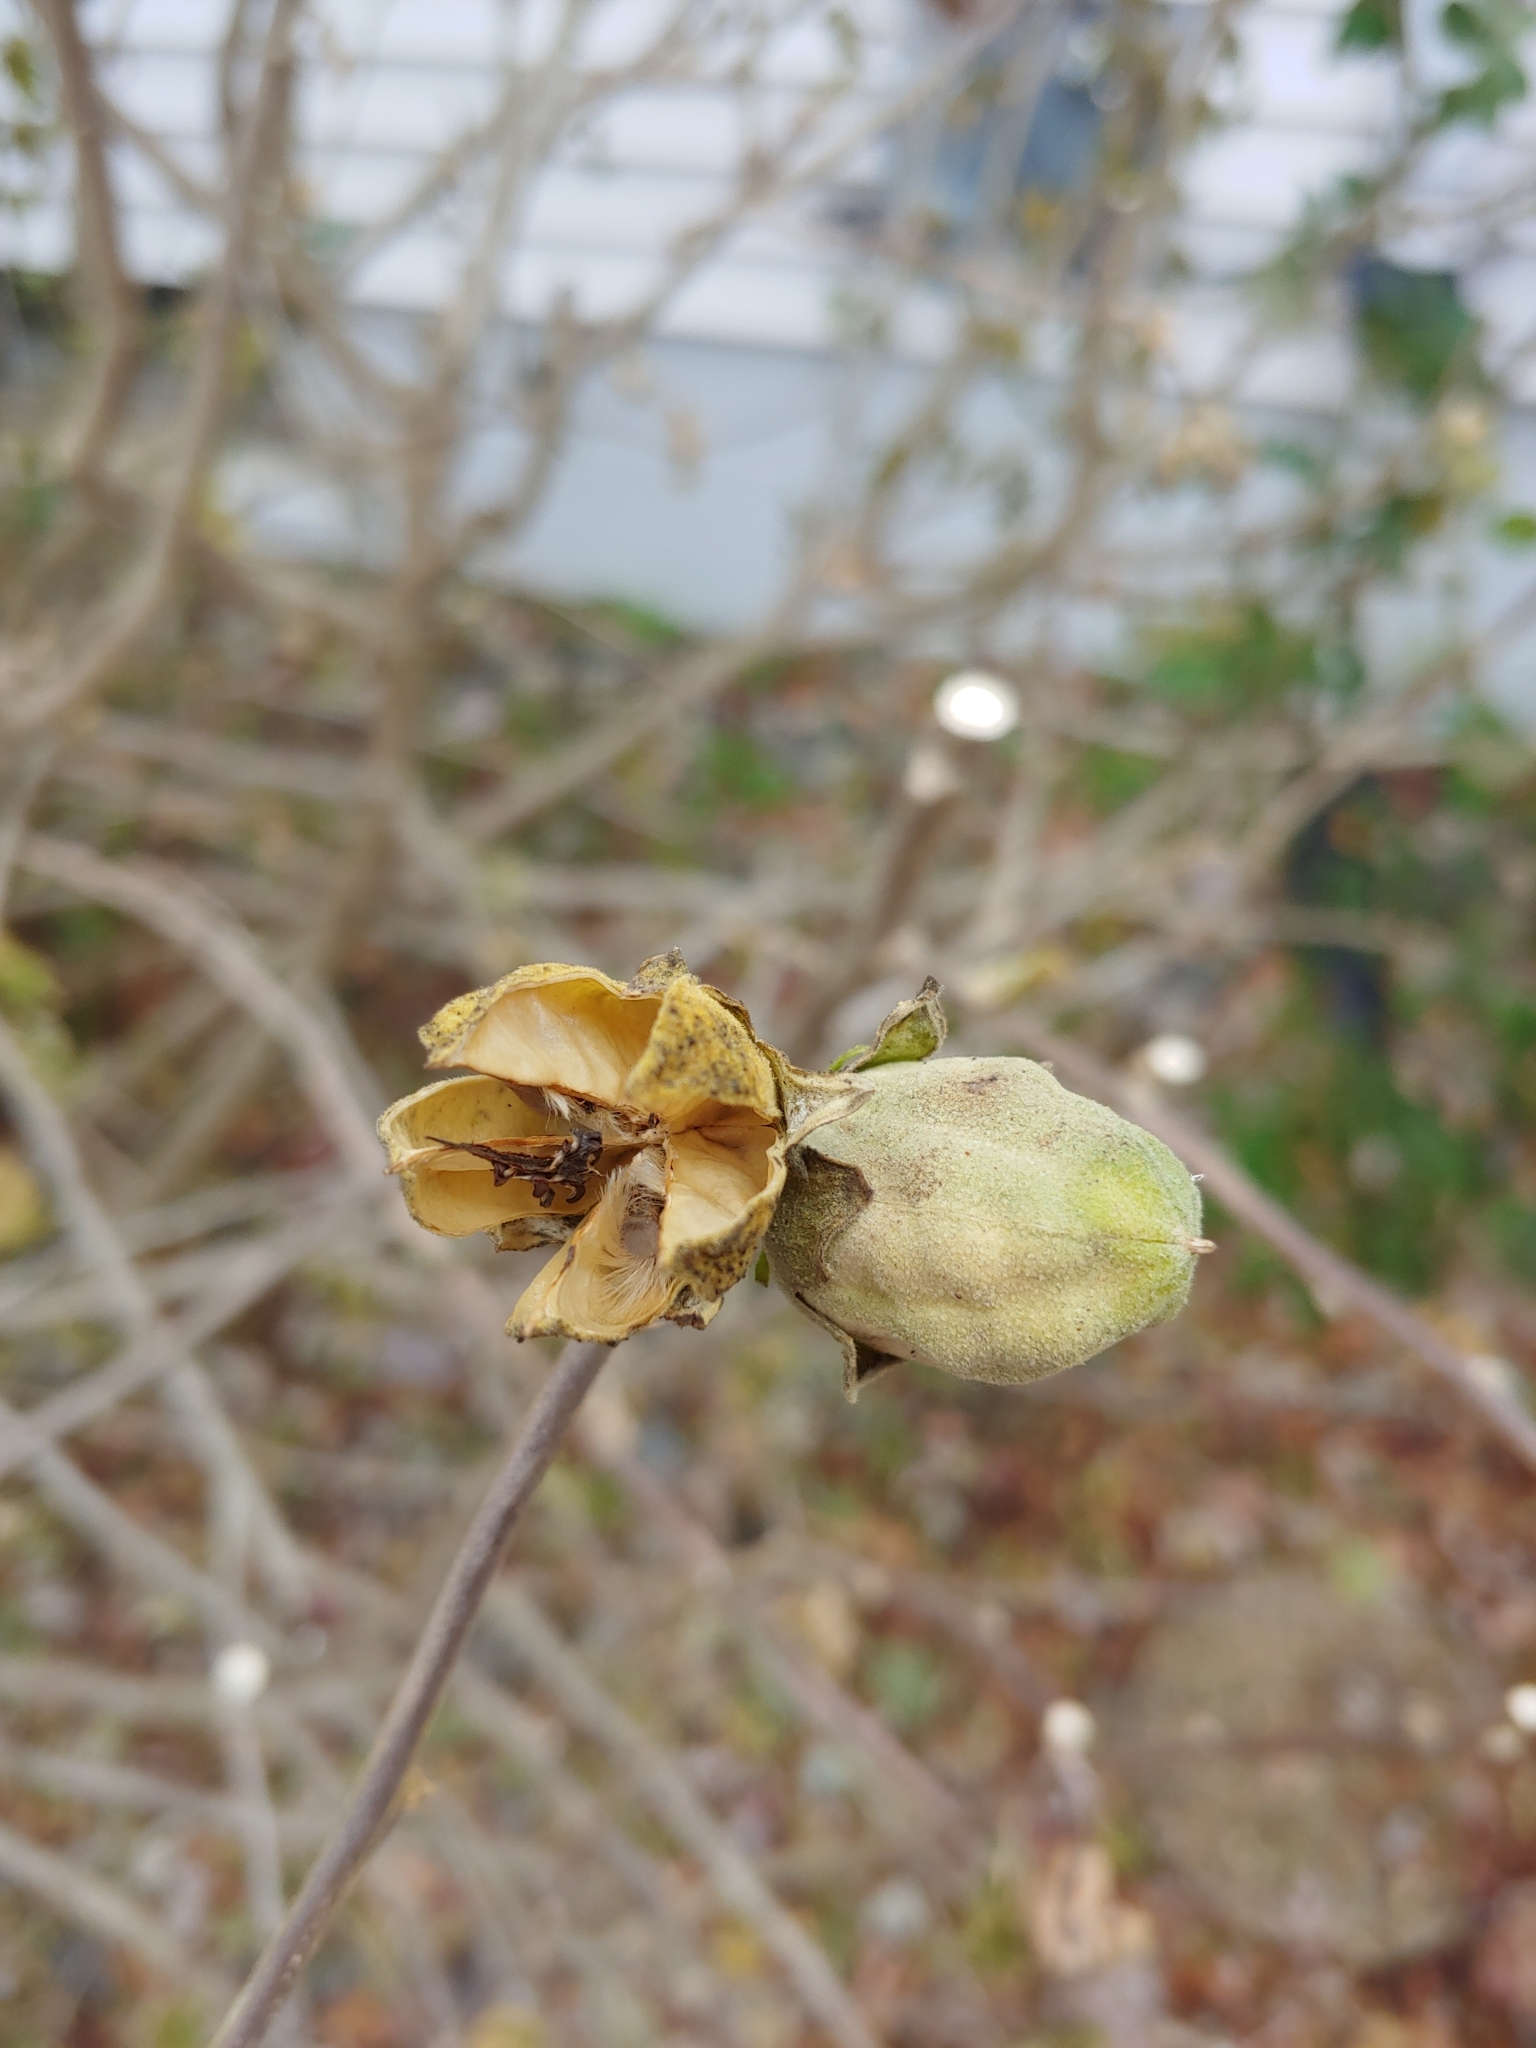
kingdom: Plantae
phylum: Tracheophyta
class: Magnoliopsida
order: Malvales
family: Malvaceae
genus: Hibiscus
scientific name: Hibiscus syriacus
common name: Syrian ketmia
